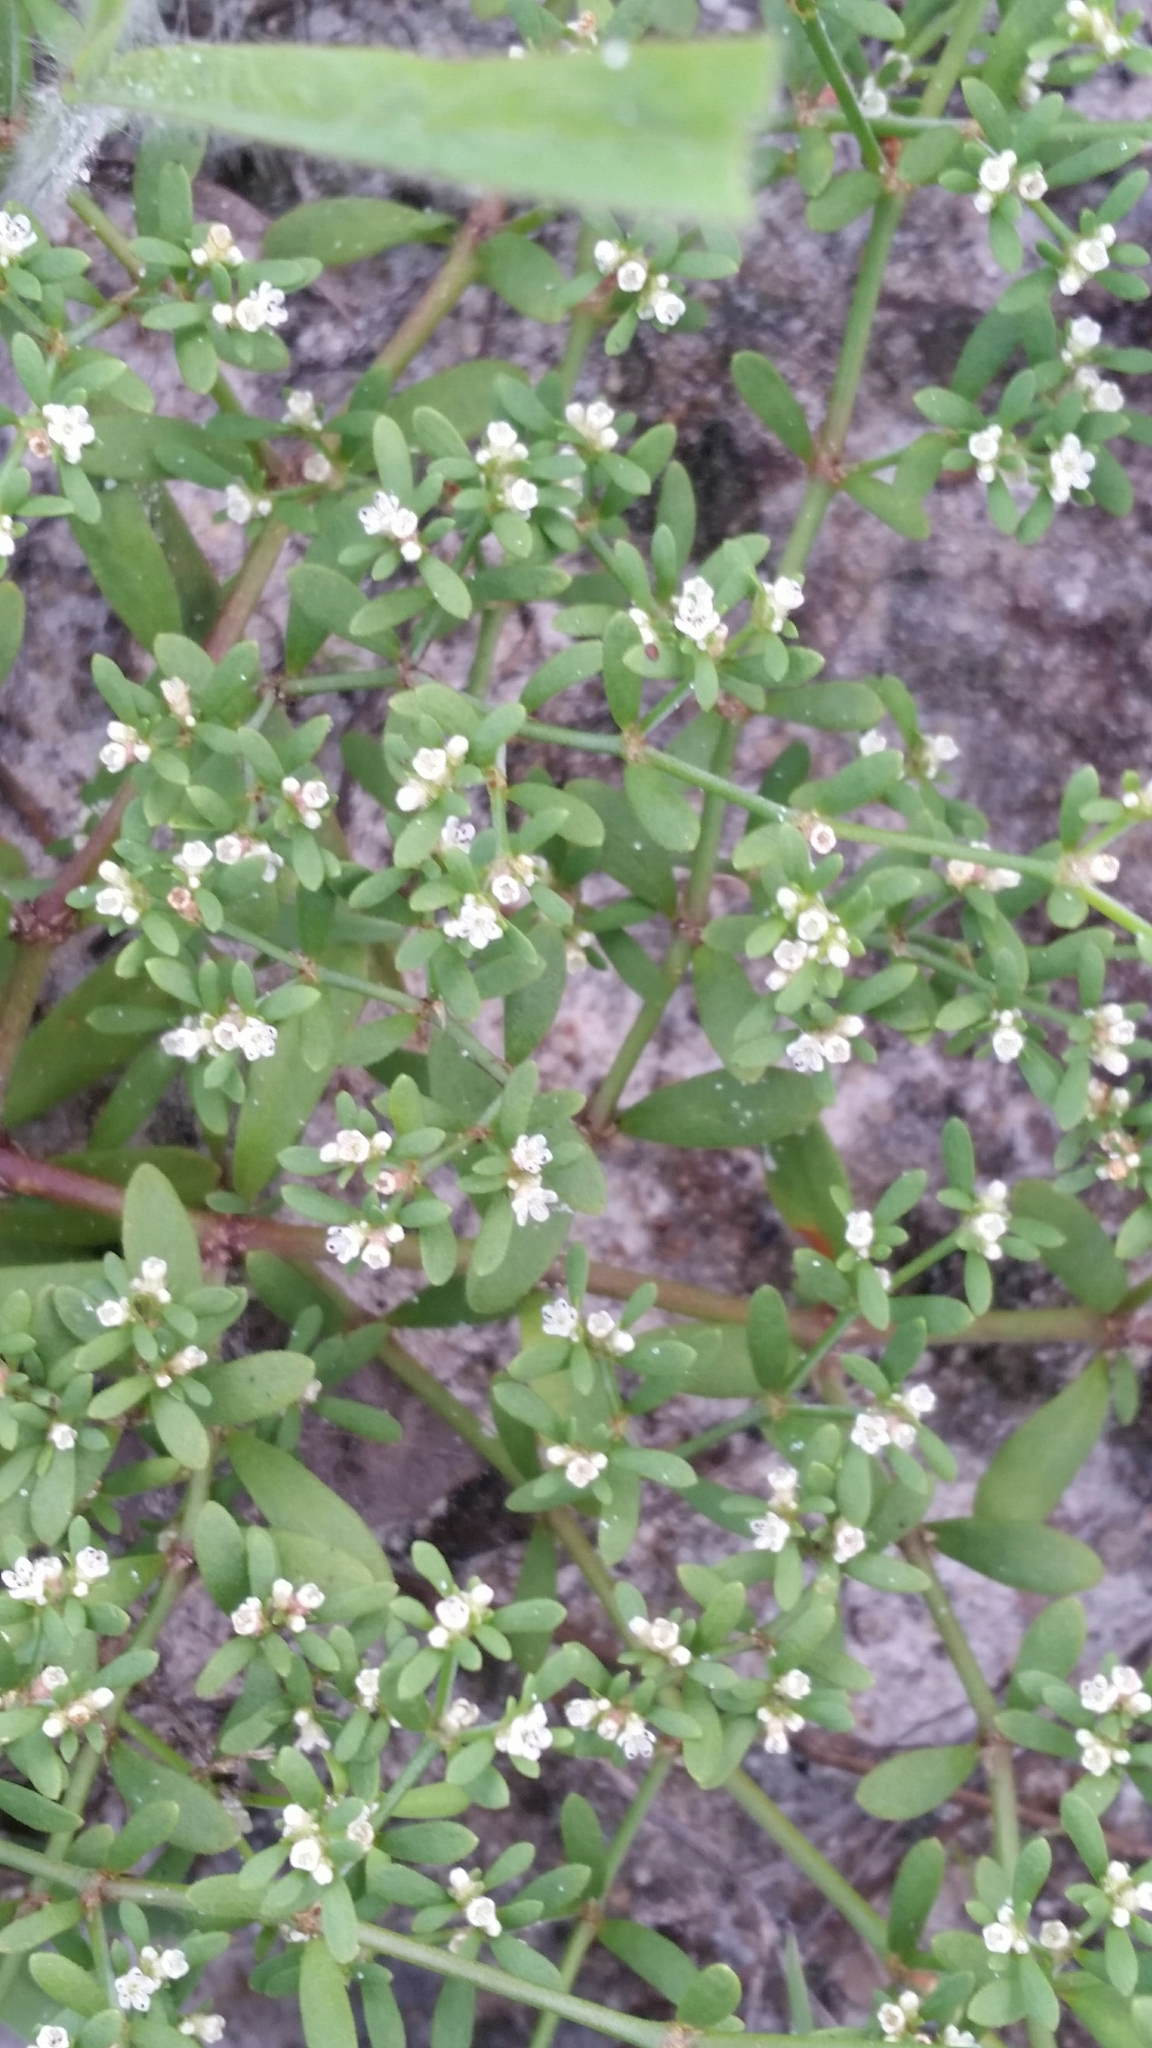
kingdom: Plantae
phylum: Tracheophyta
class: Magnoliopsida
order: Caryophyllales
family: Caryophyllaceae
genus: Paronychia
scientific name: Paronychia americana
